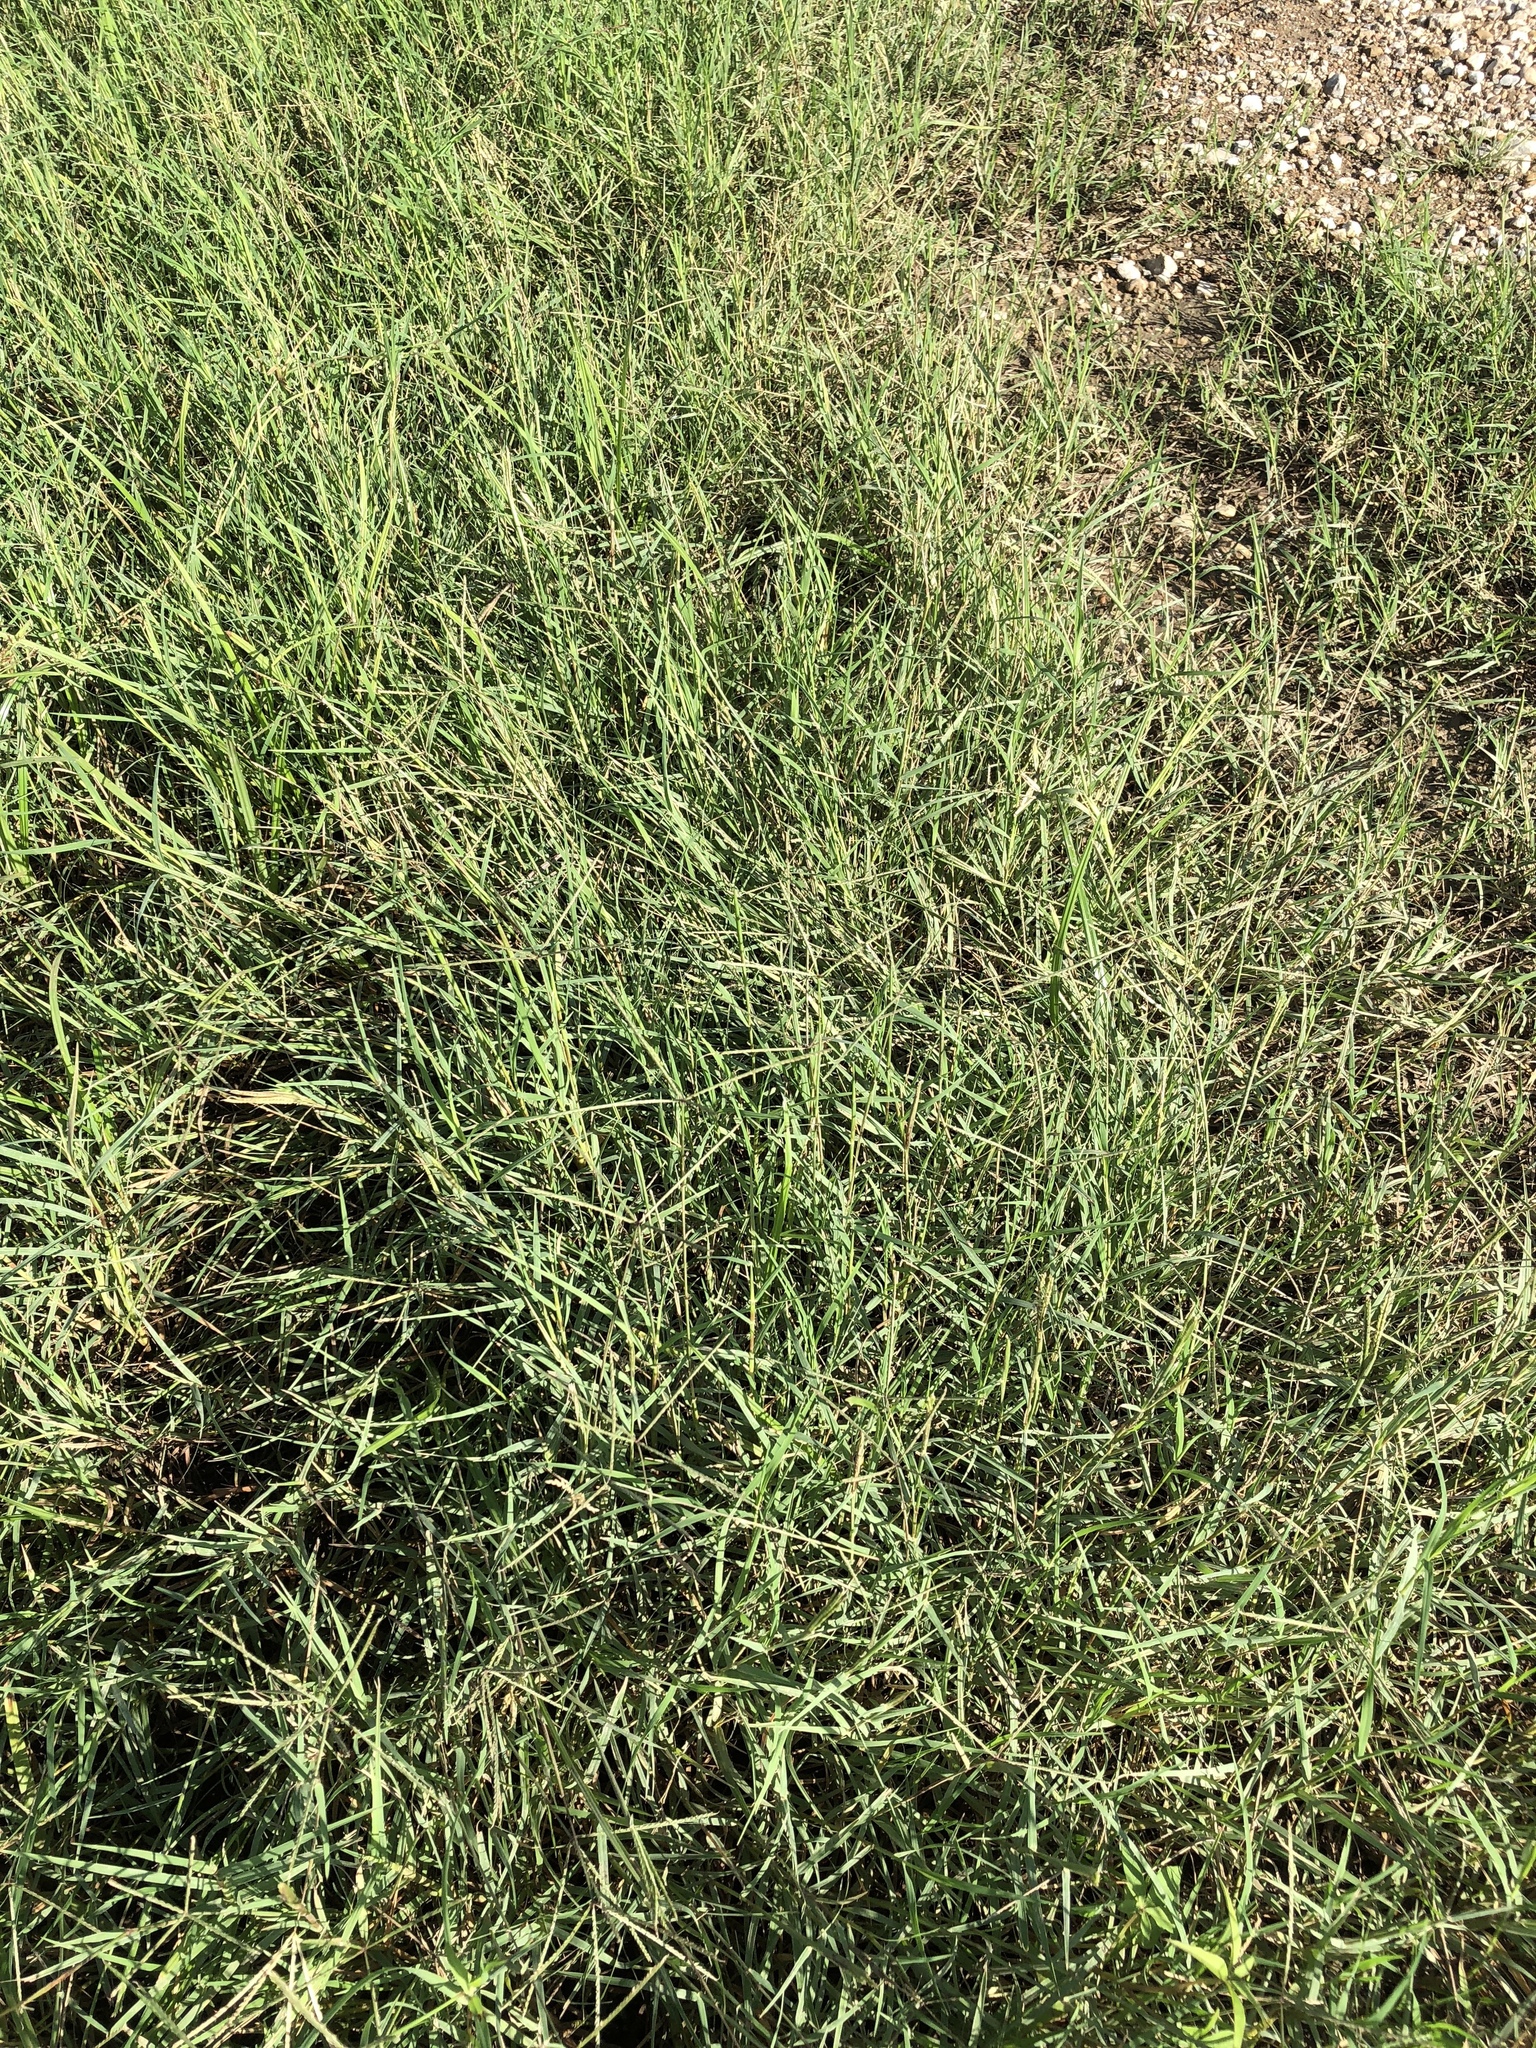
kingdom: Plantae
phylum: Tracheophyta
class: Liliopsida
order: Poales
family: Poaceae
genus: Cynodon
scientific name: Cynodon dactylon
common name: Bermuda grass
